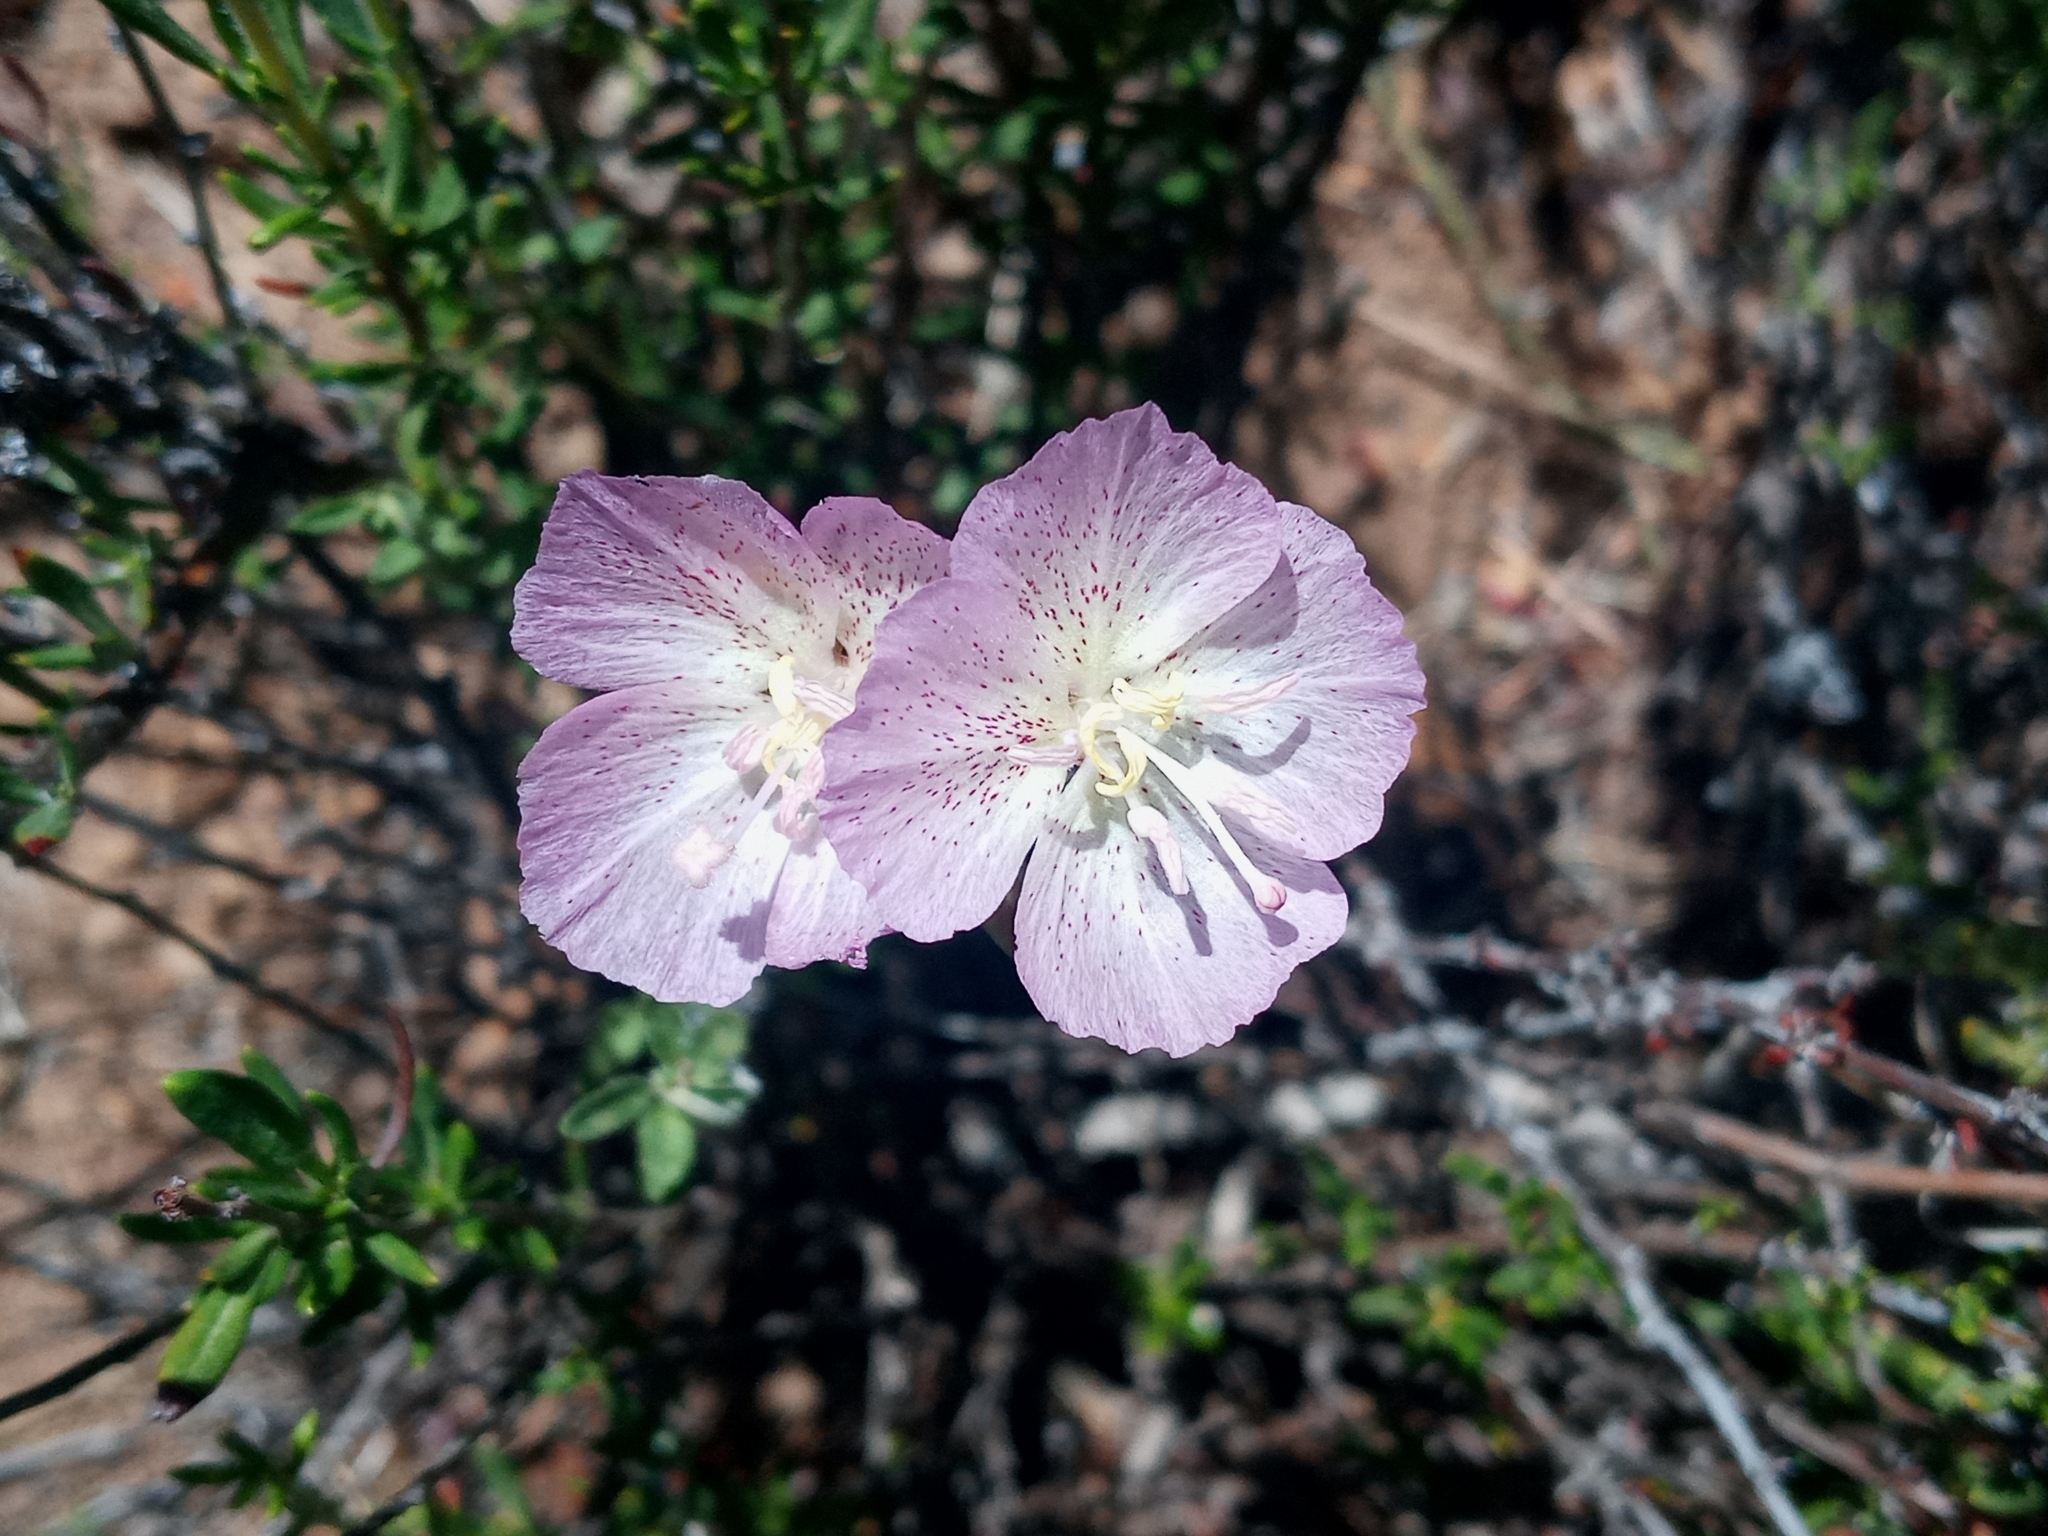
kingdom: Plantae
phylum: Tracheophyta
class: Magnoliopsida
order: Myrtales
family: Onagraceae
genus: Clarkia
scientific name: Clarkia bottae
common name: Punch-bowl godetia
